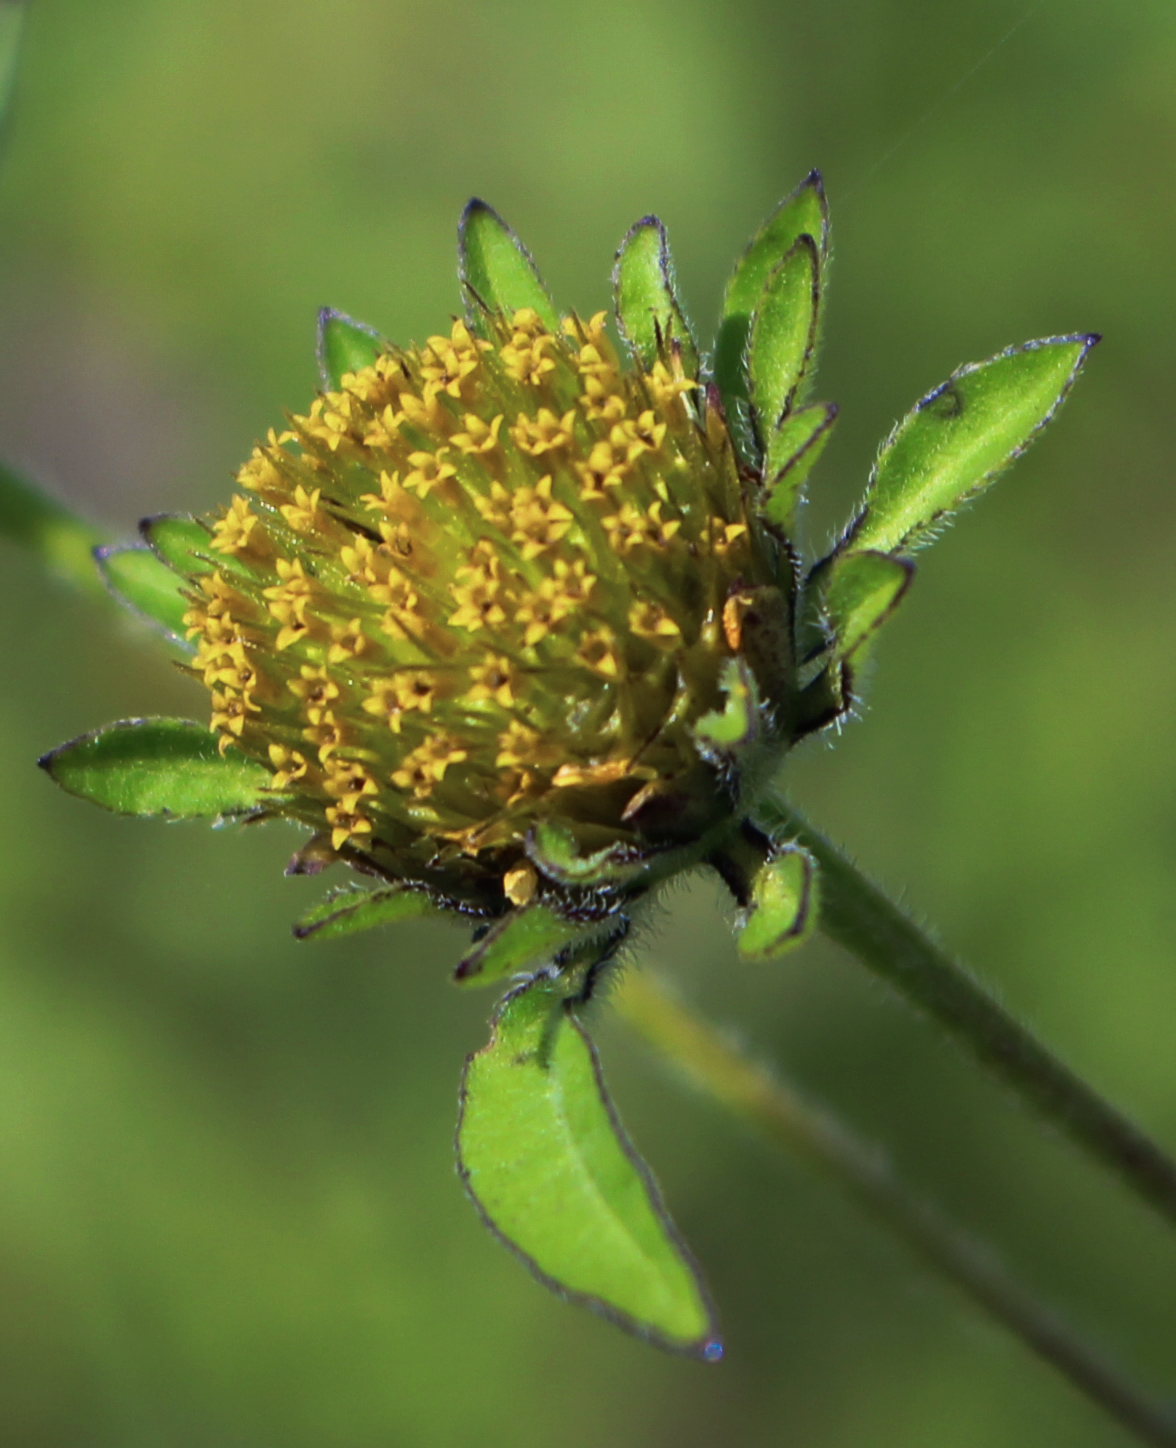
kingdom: Plantae
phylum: Tracheophyta
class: Magnoliopsida
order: Asterales
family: Asteraceae
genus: Bidens
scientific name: Bidens vulgata
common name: Tall beggarticks
